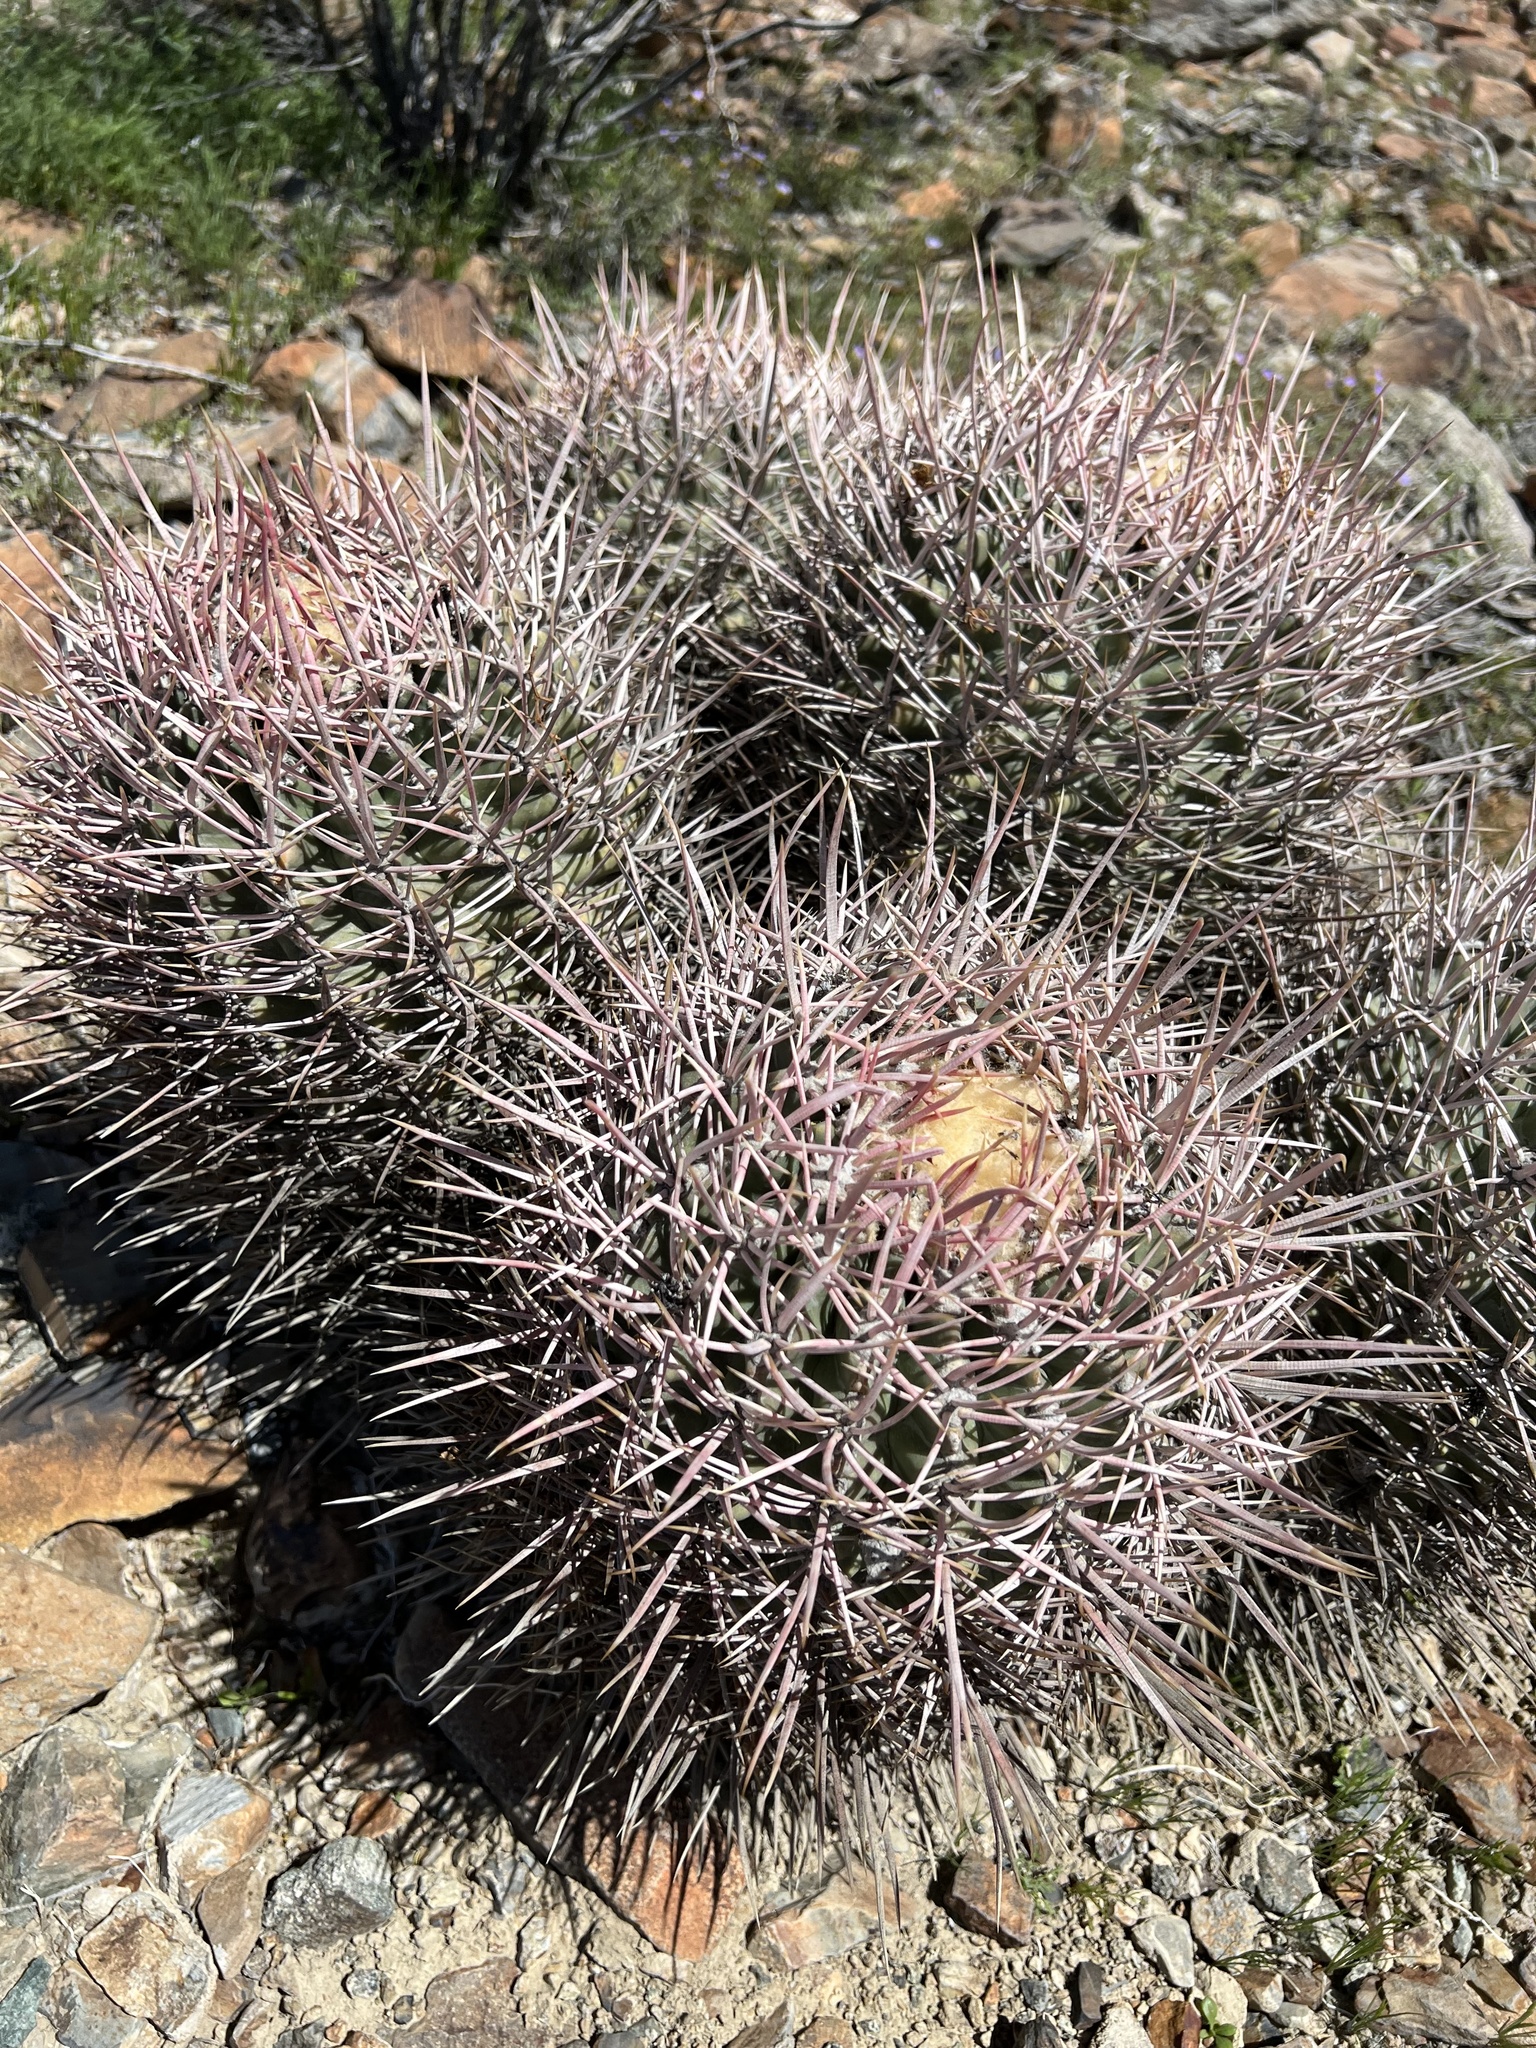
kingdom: Plantae
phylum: Tracheophyta
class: Magnoliopsida
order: Caryophyllales
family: Cactaceae
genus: Echinocactus
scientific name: Echinocactus polycephalus
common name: Cottontop cactus
